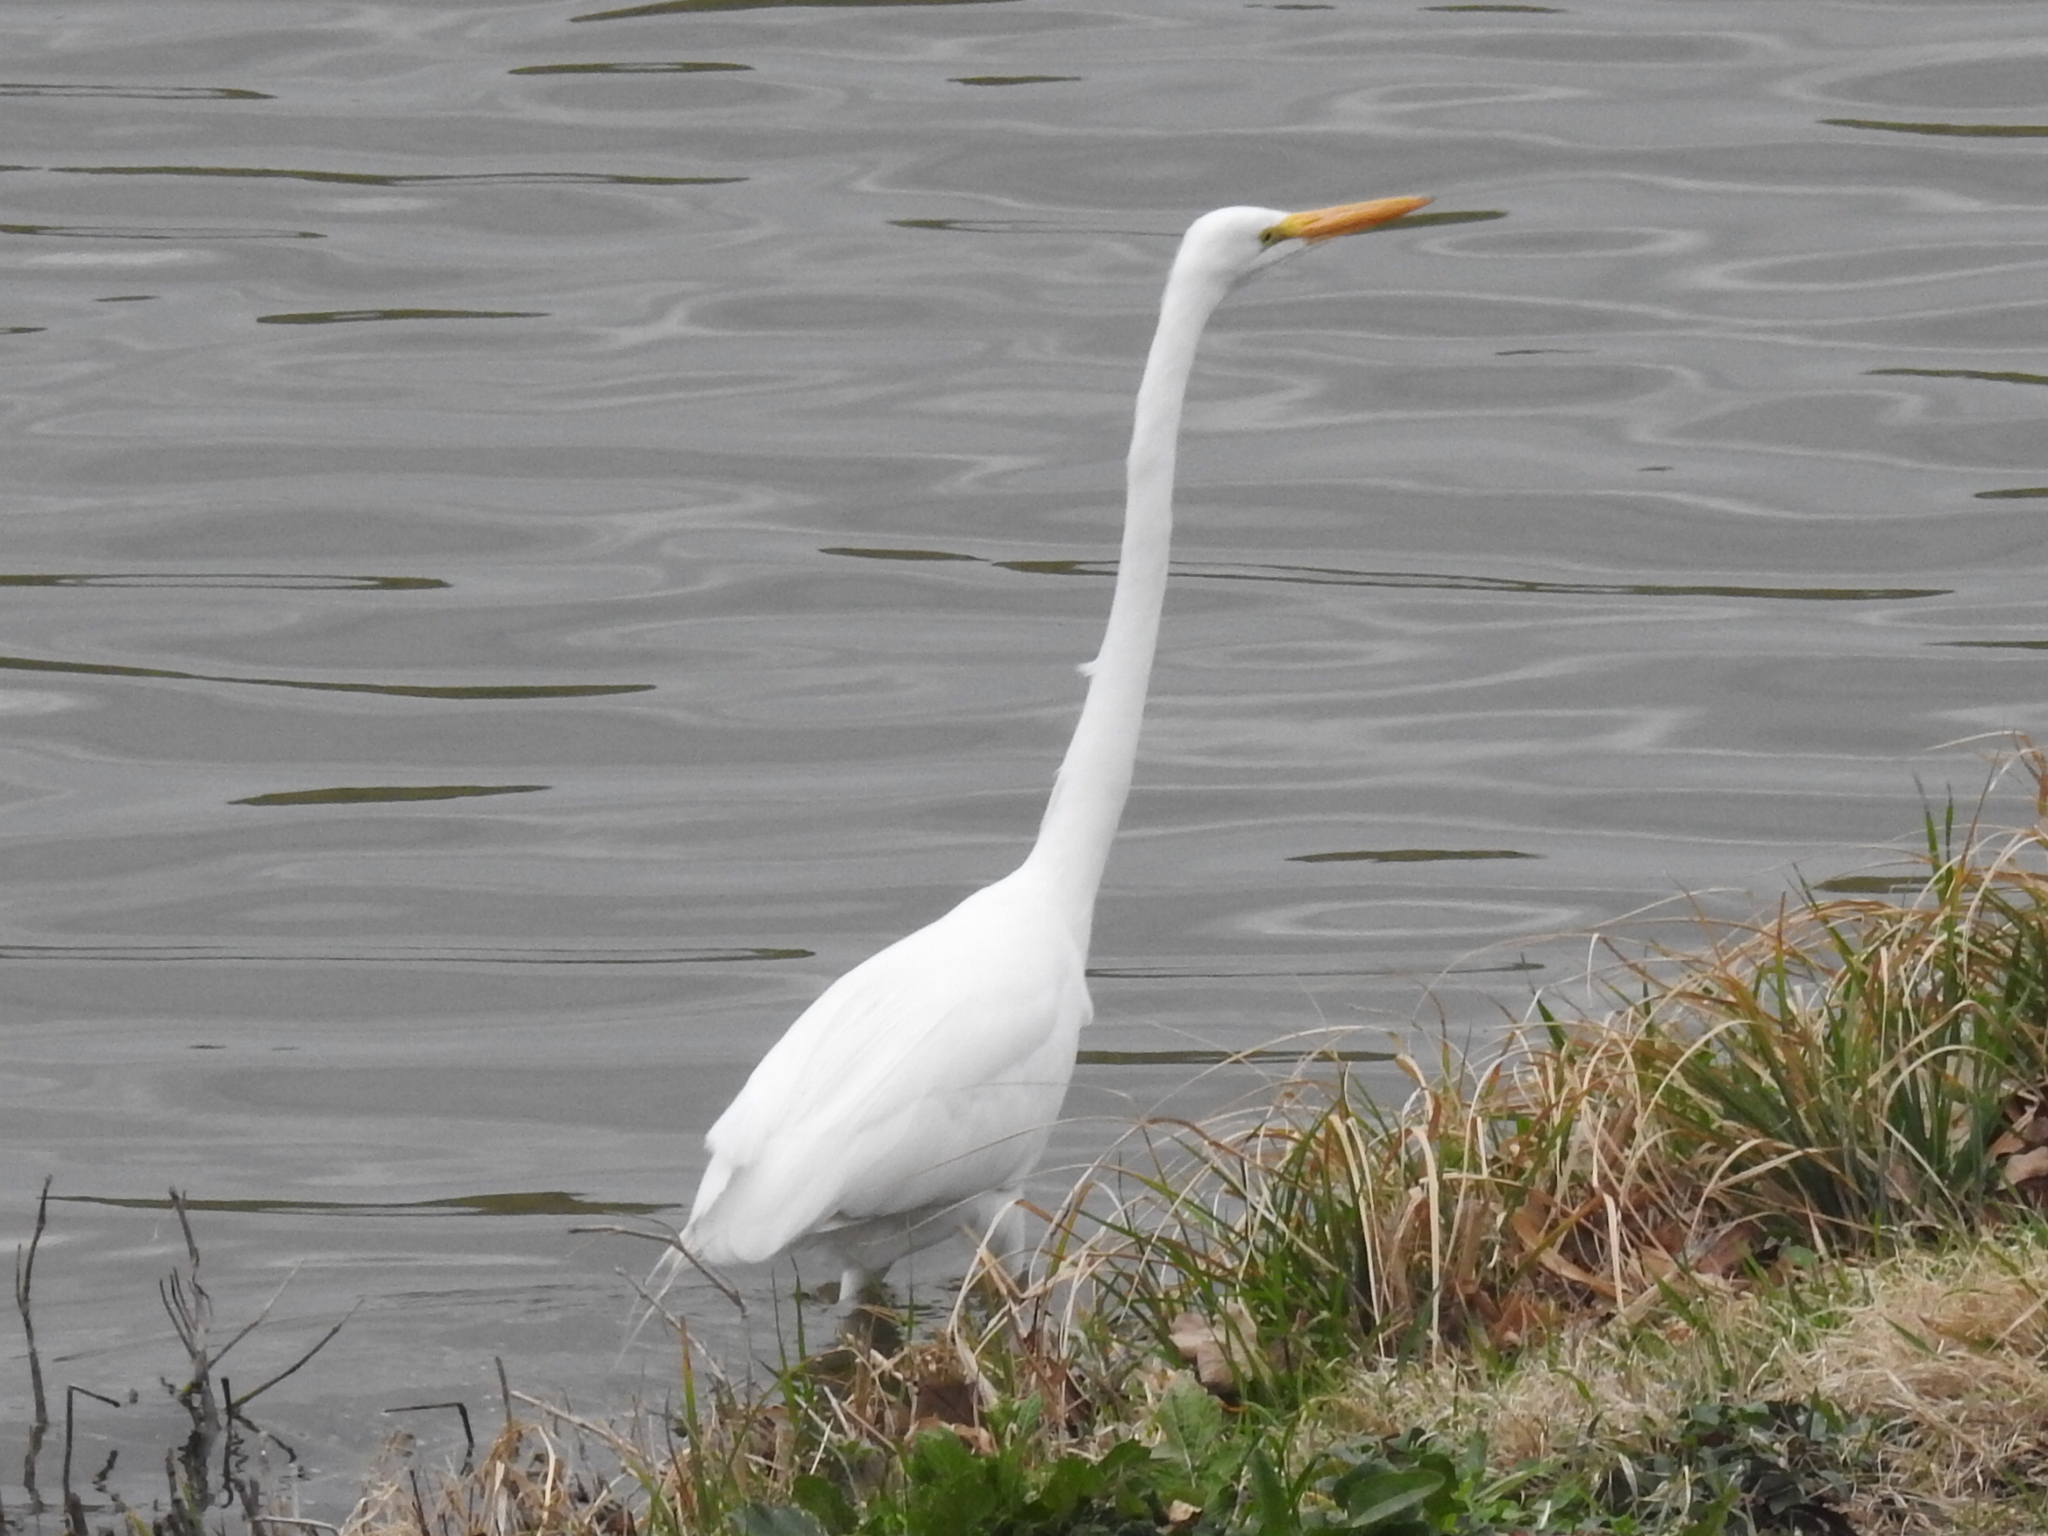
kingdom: Animalia
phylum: Chordata
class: Aves
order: Pelecaniformes
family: Ardeidae
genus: Ardea
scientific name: Ardea alba
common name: Great egret
